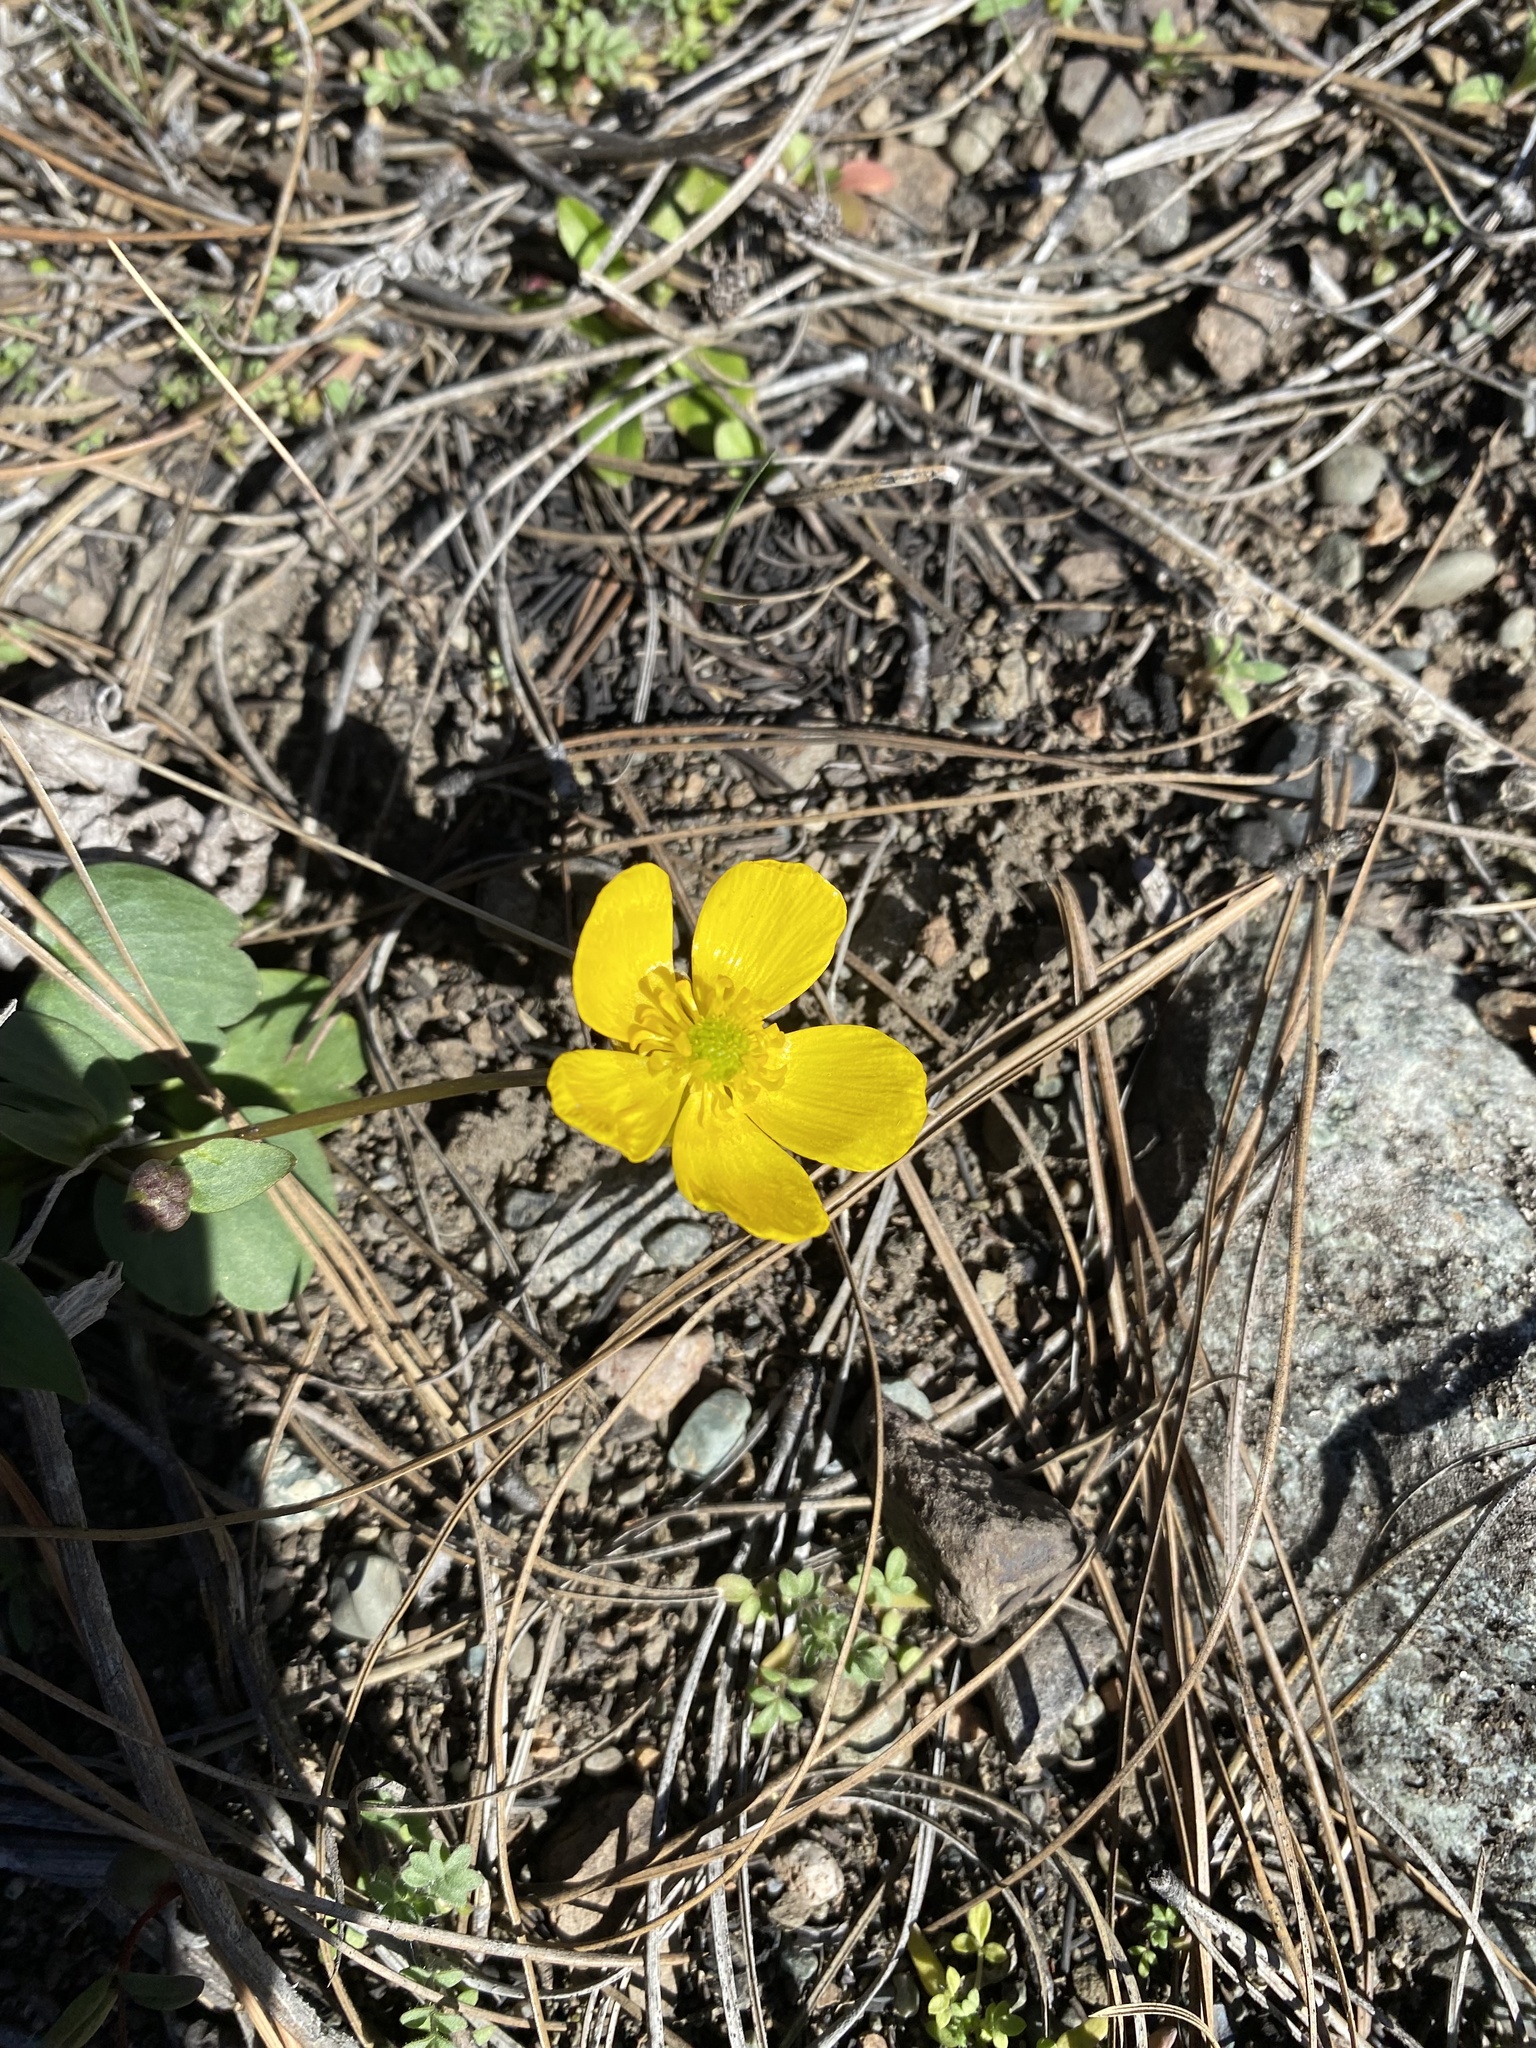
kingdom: Plantae
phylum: Tracheophyta
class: Magnoliopsida
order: Ranunculales
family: Ranunculaceae
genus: Ranunculus
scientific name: Ranunculus glaberrimus
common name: Sagebrush buttercup
